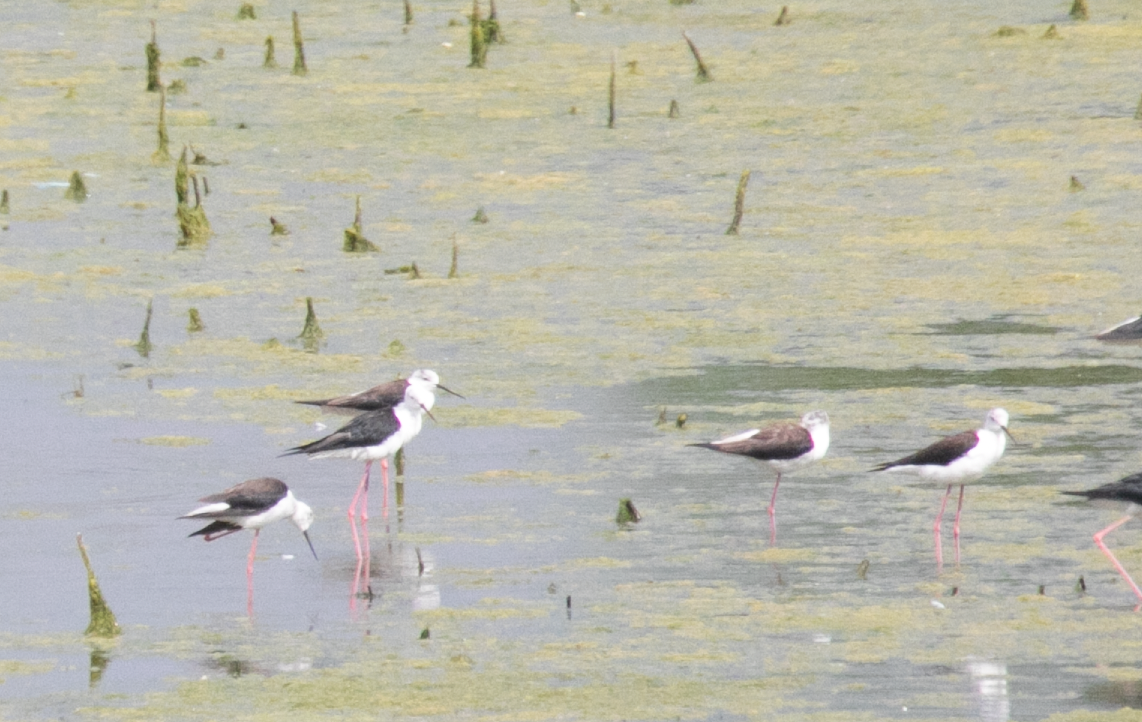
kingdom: Animalia
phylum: Chordata
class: Aves
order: Charadriiformes
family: Recurvirostridae
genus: Himantopus
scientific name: Himantopus himantopus
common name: Black-winged stilt
